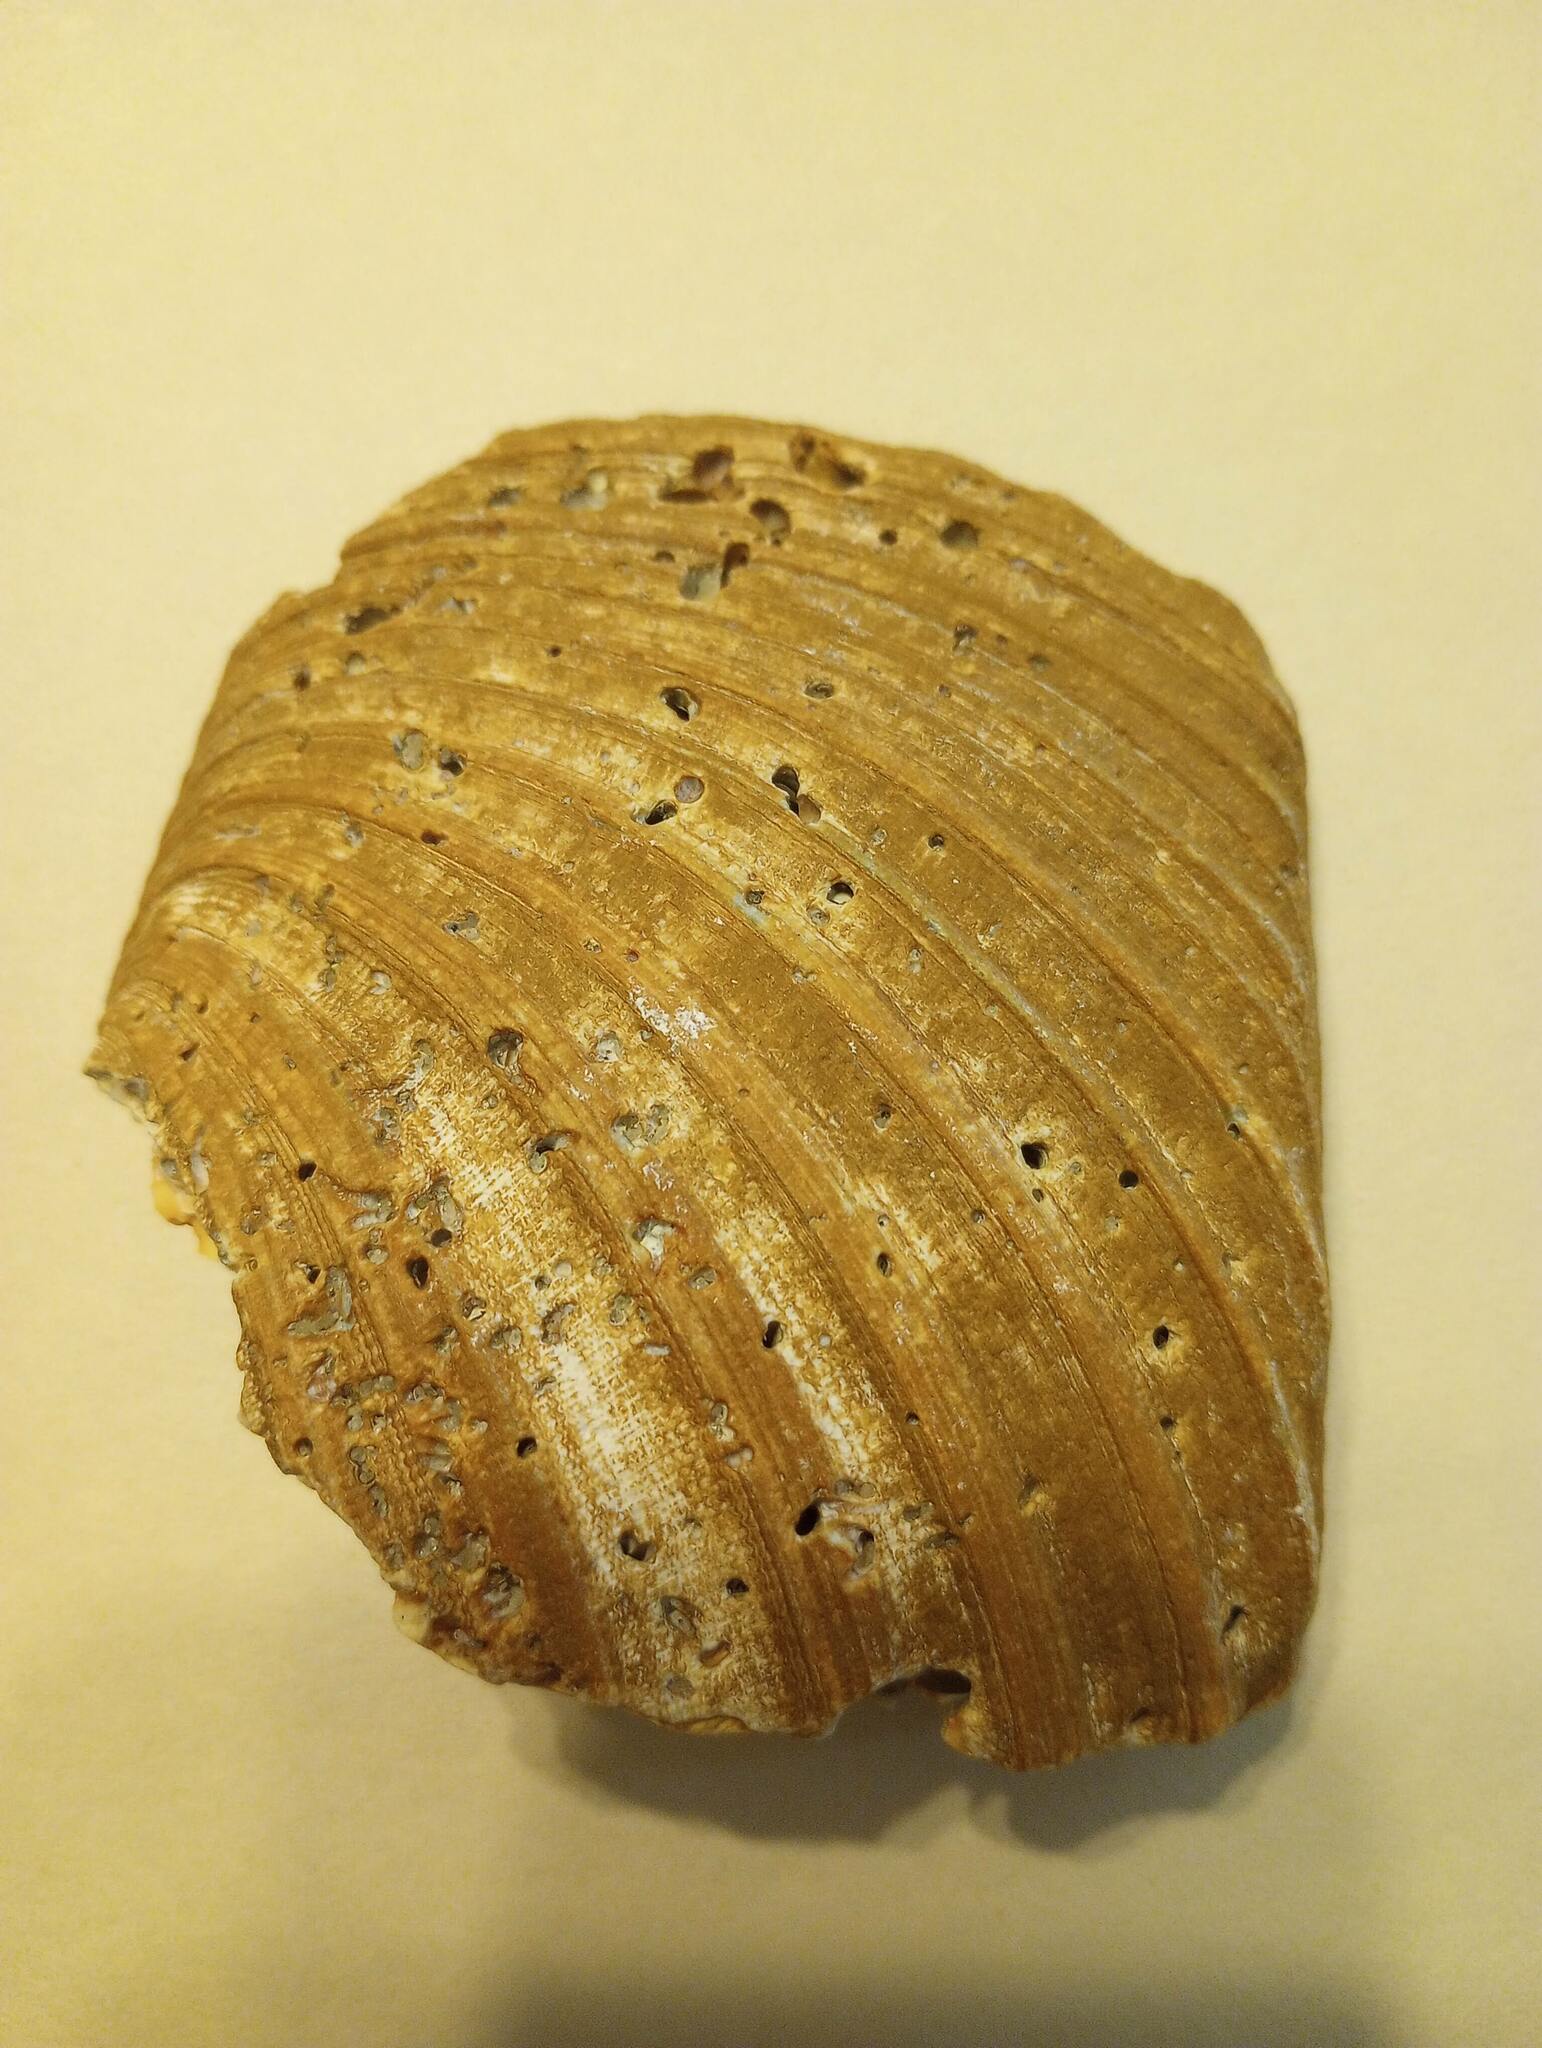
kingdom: Animalia
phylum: Mollusca
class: Bivalvia
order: Venerida
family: Veneridae
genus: Mercenaria
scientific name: Mercenaria
